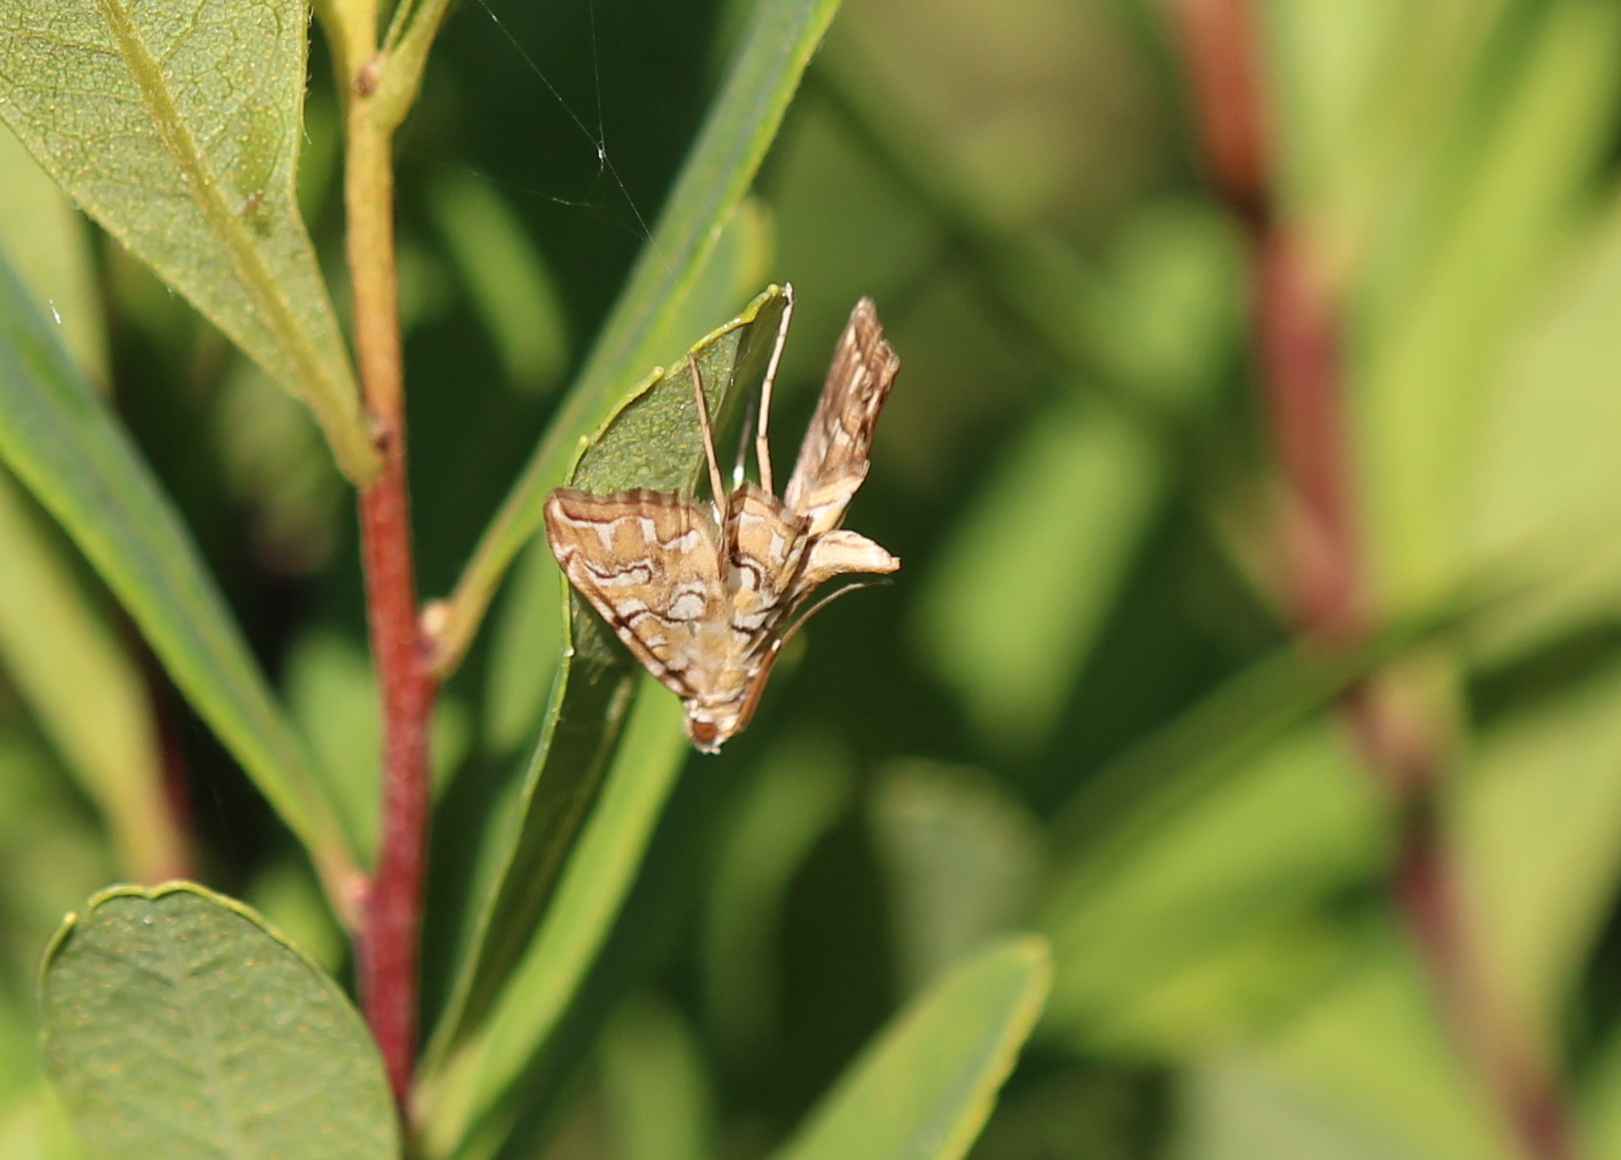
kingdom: Animalia
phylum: Arthropoda
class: Insecta
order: Lepidoptera
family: Crambidae
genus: Elophila
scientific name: Elophila icciusalis
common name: Pondside pyralid moth
